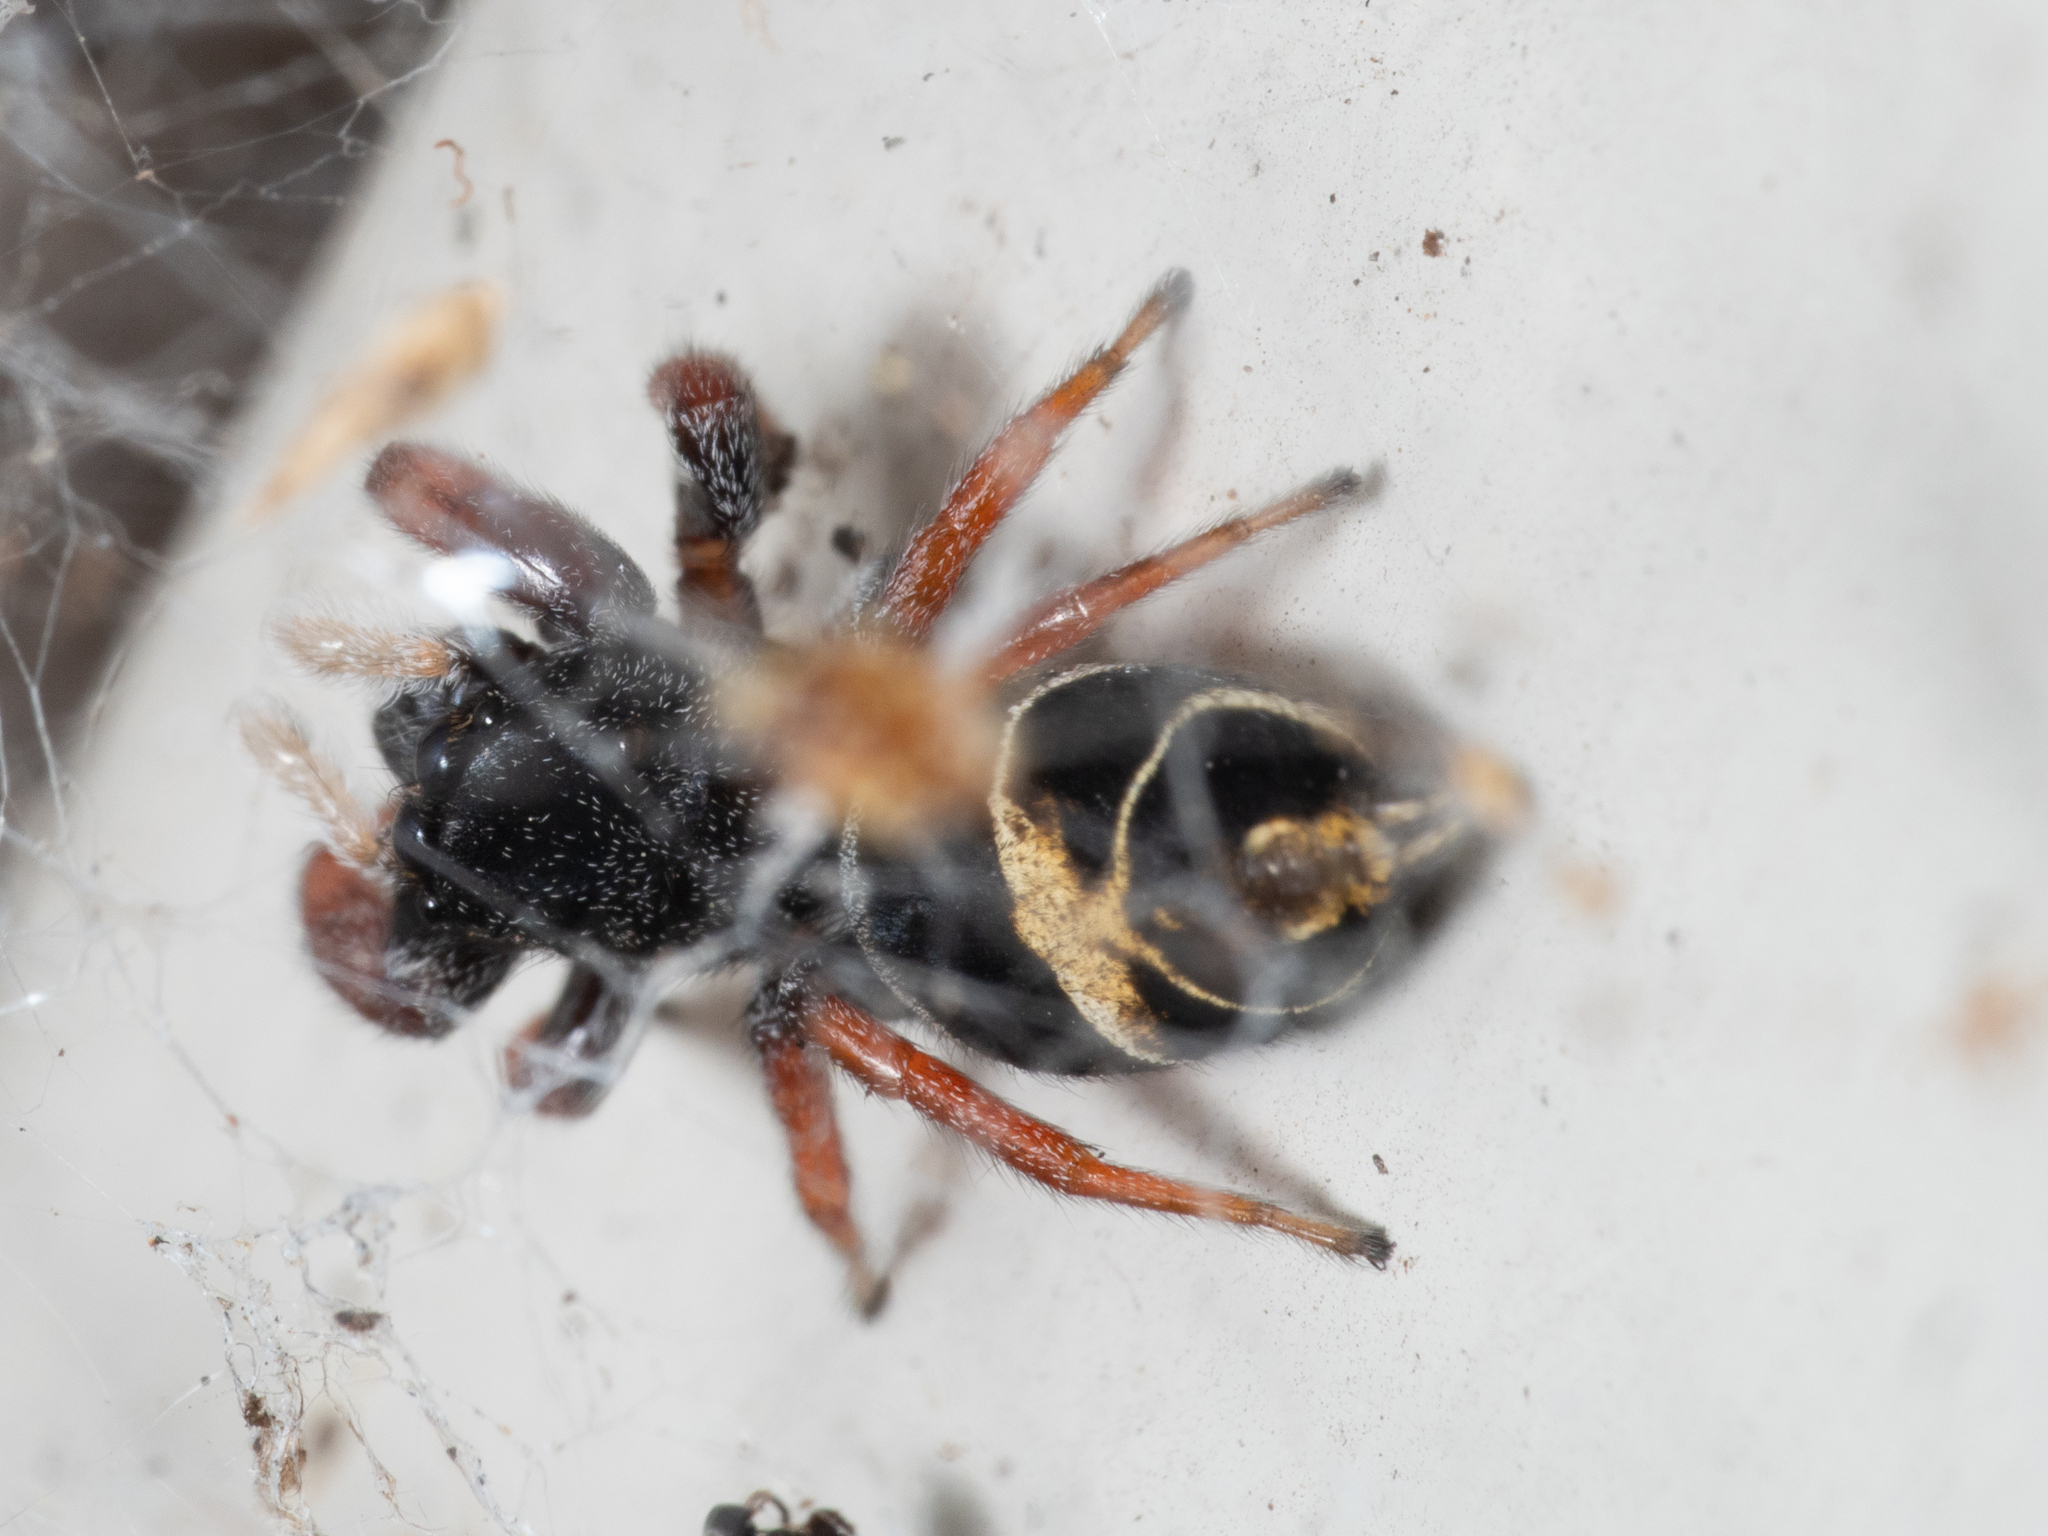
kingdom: Animalia
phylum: Arthropoda
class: Arachnida
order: Araneae
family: Salticidae
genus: Apricia
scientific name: Apricia jovialis
